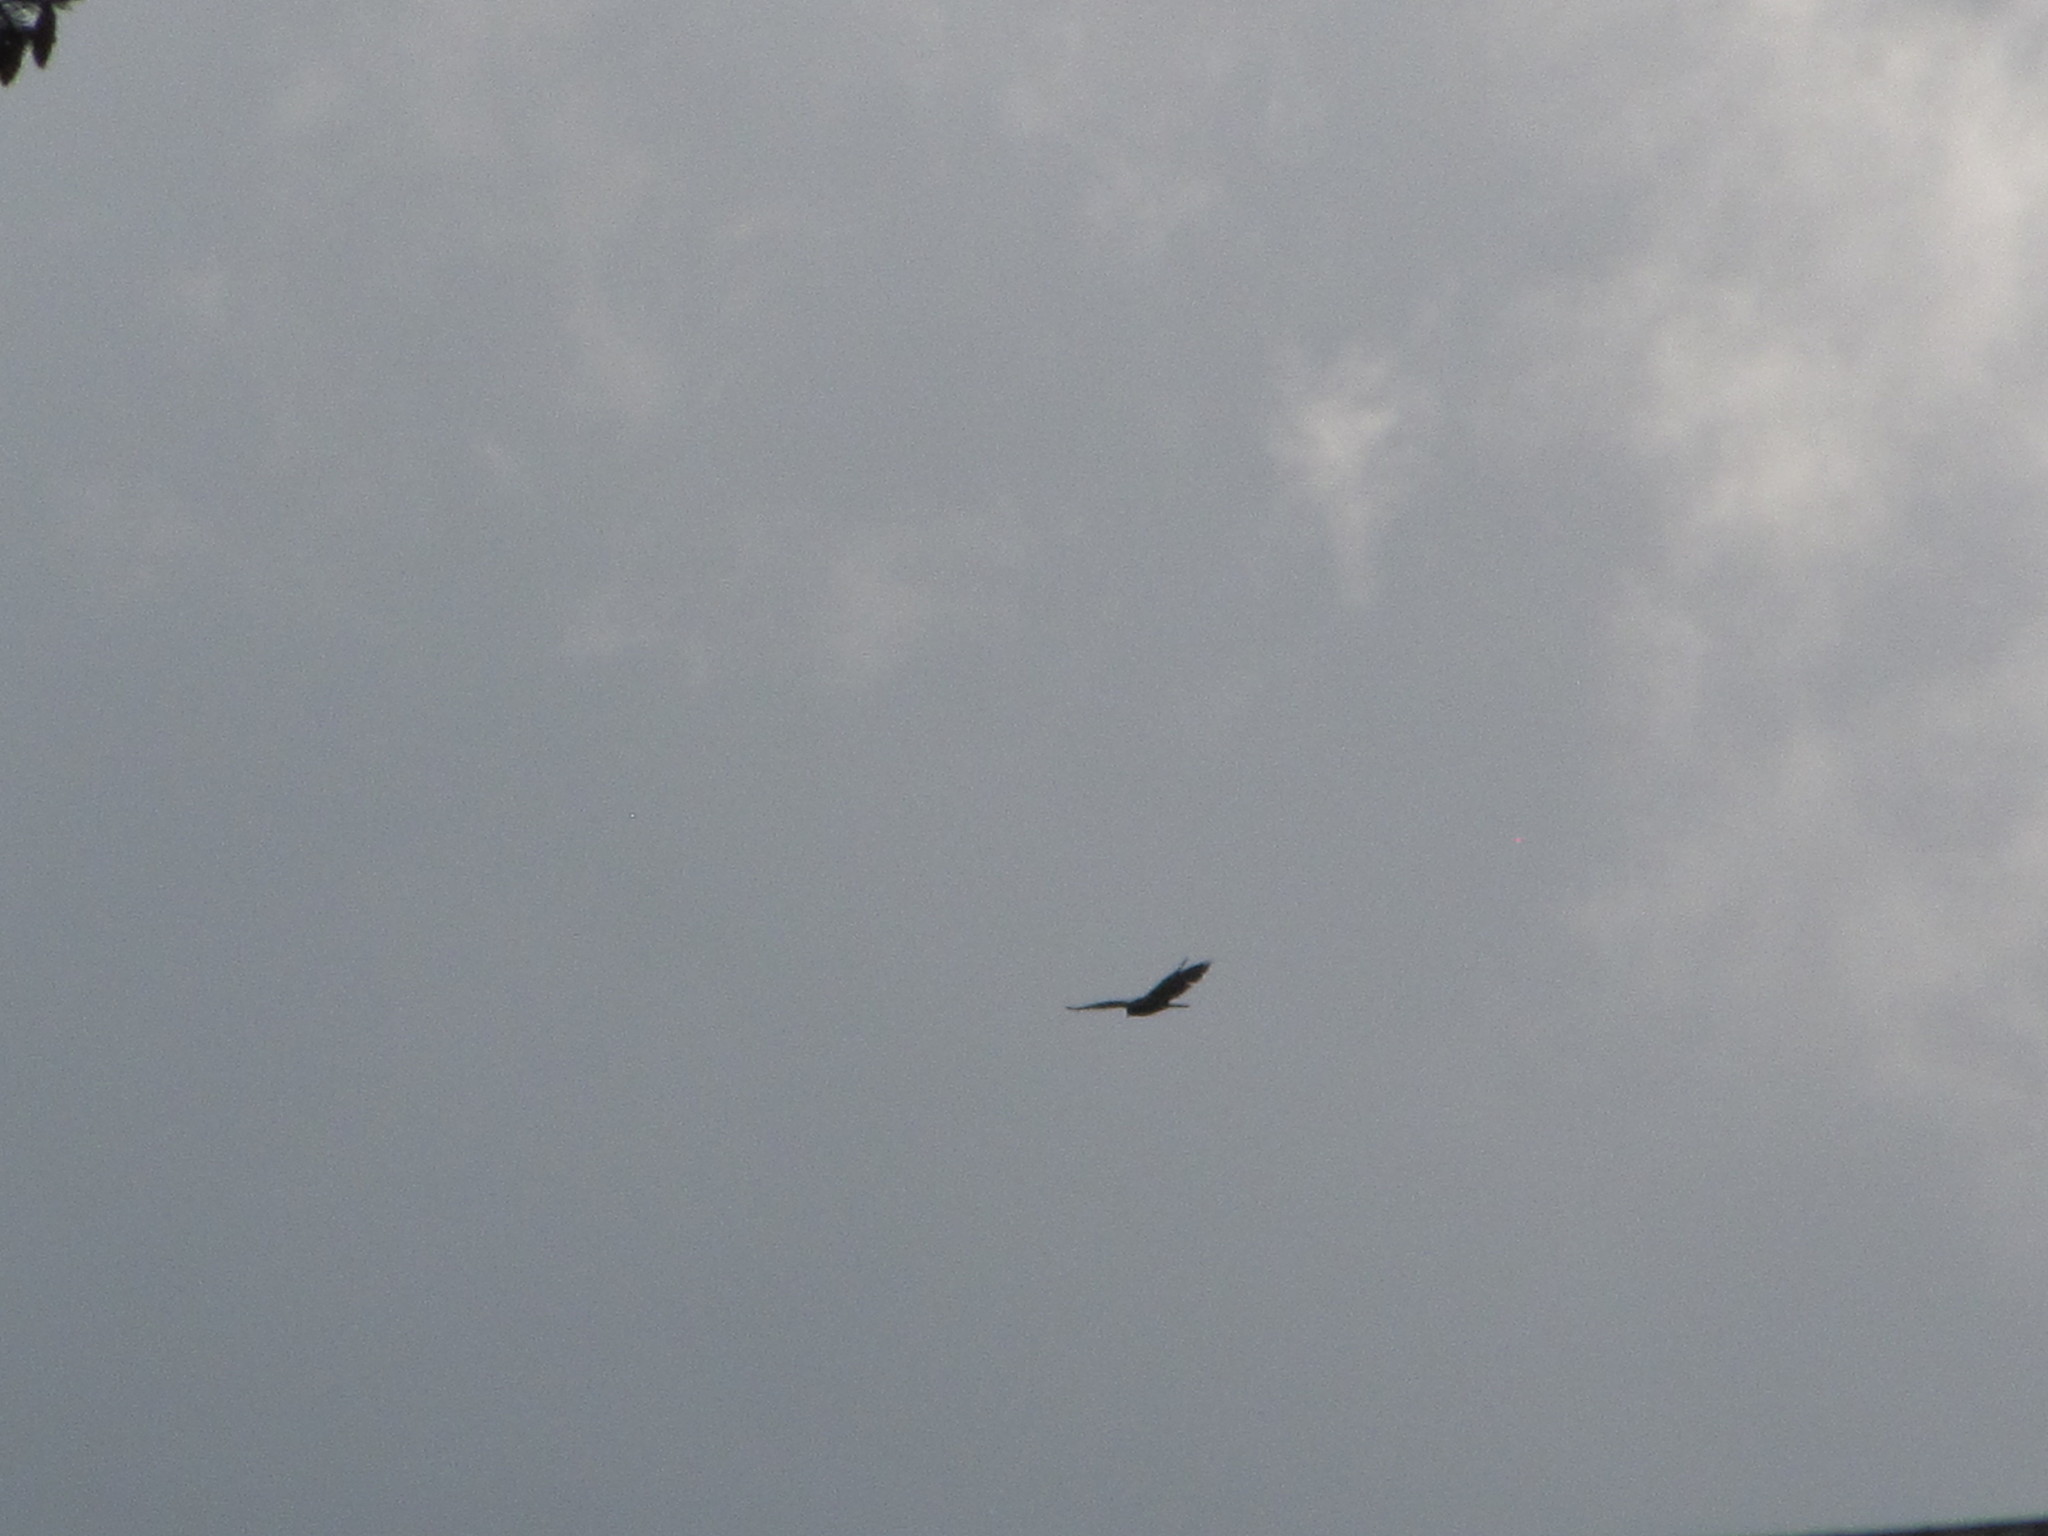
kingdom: Animalia
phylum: Chordata
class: Aves
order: Accipitriformes
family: Cathartidae
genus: Cathartes
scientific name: Cathartes aura
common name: Turkey vulture
